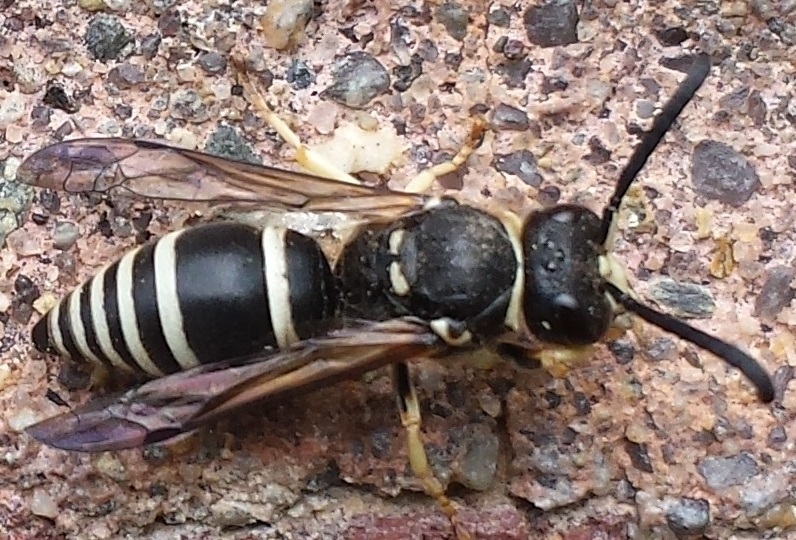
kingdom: Animalia
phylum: Arthropoda
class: Insecta
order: Hymenoptera
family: Vespidae
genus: Ancistrocerus
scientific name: Ancistrocerus
